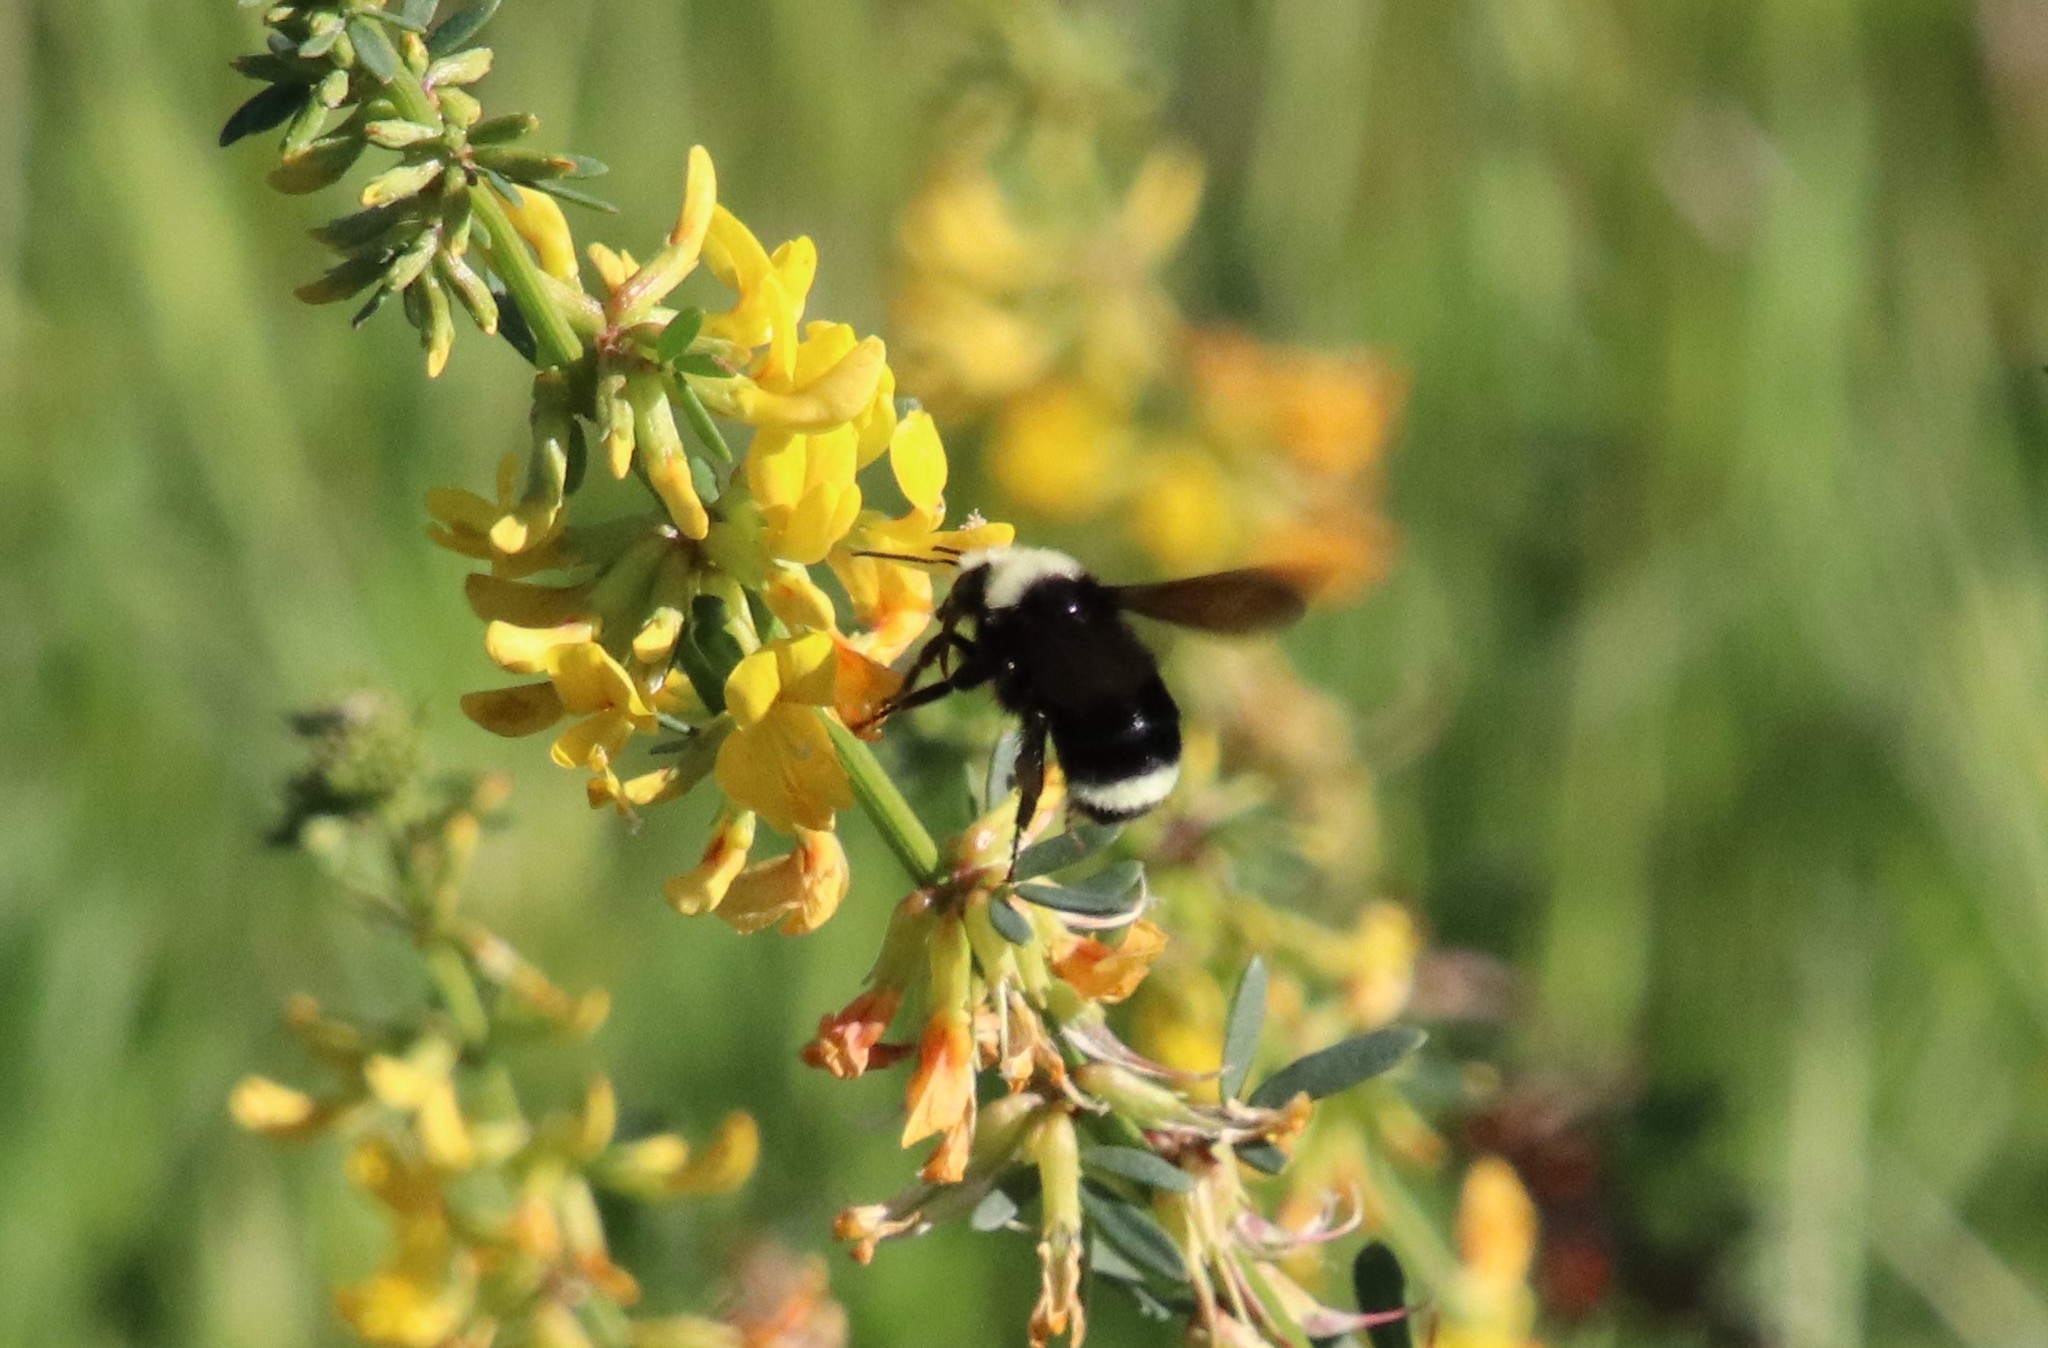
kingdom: Animalia
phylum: Arthropoda
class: Insecta
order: Hymenoptera
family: Apidae
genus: Bombus
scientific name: Bombus vosnesenskii
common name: Vosnesensky bumble bee
